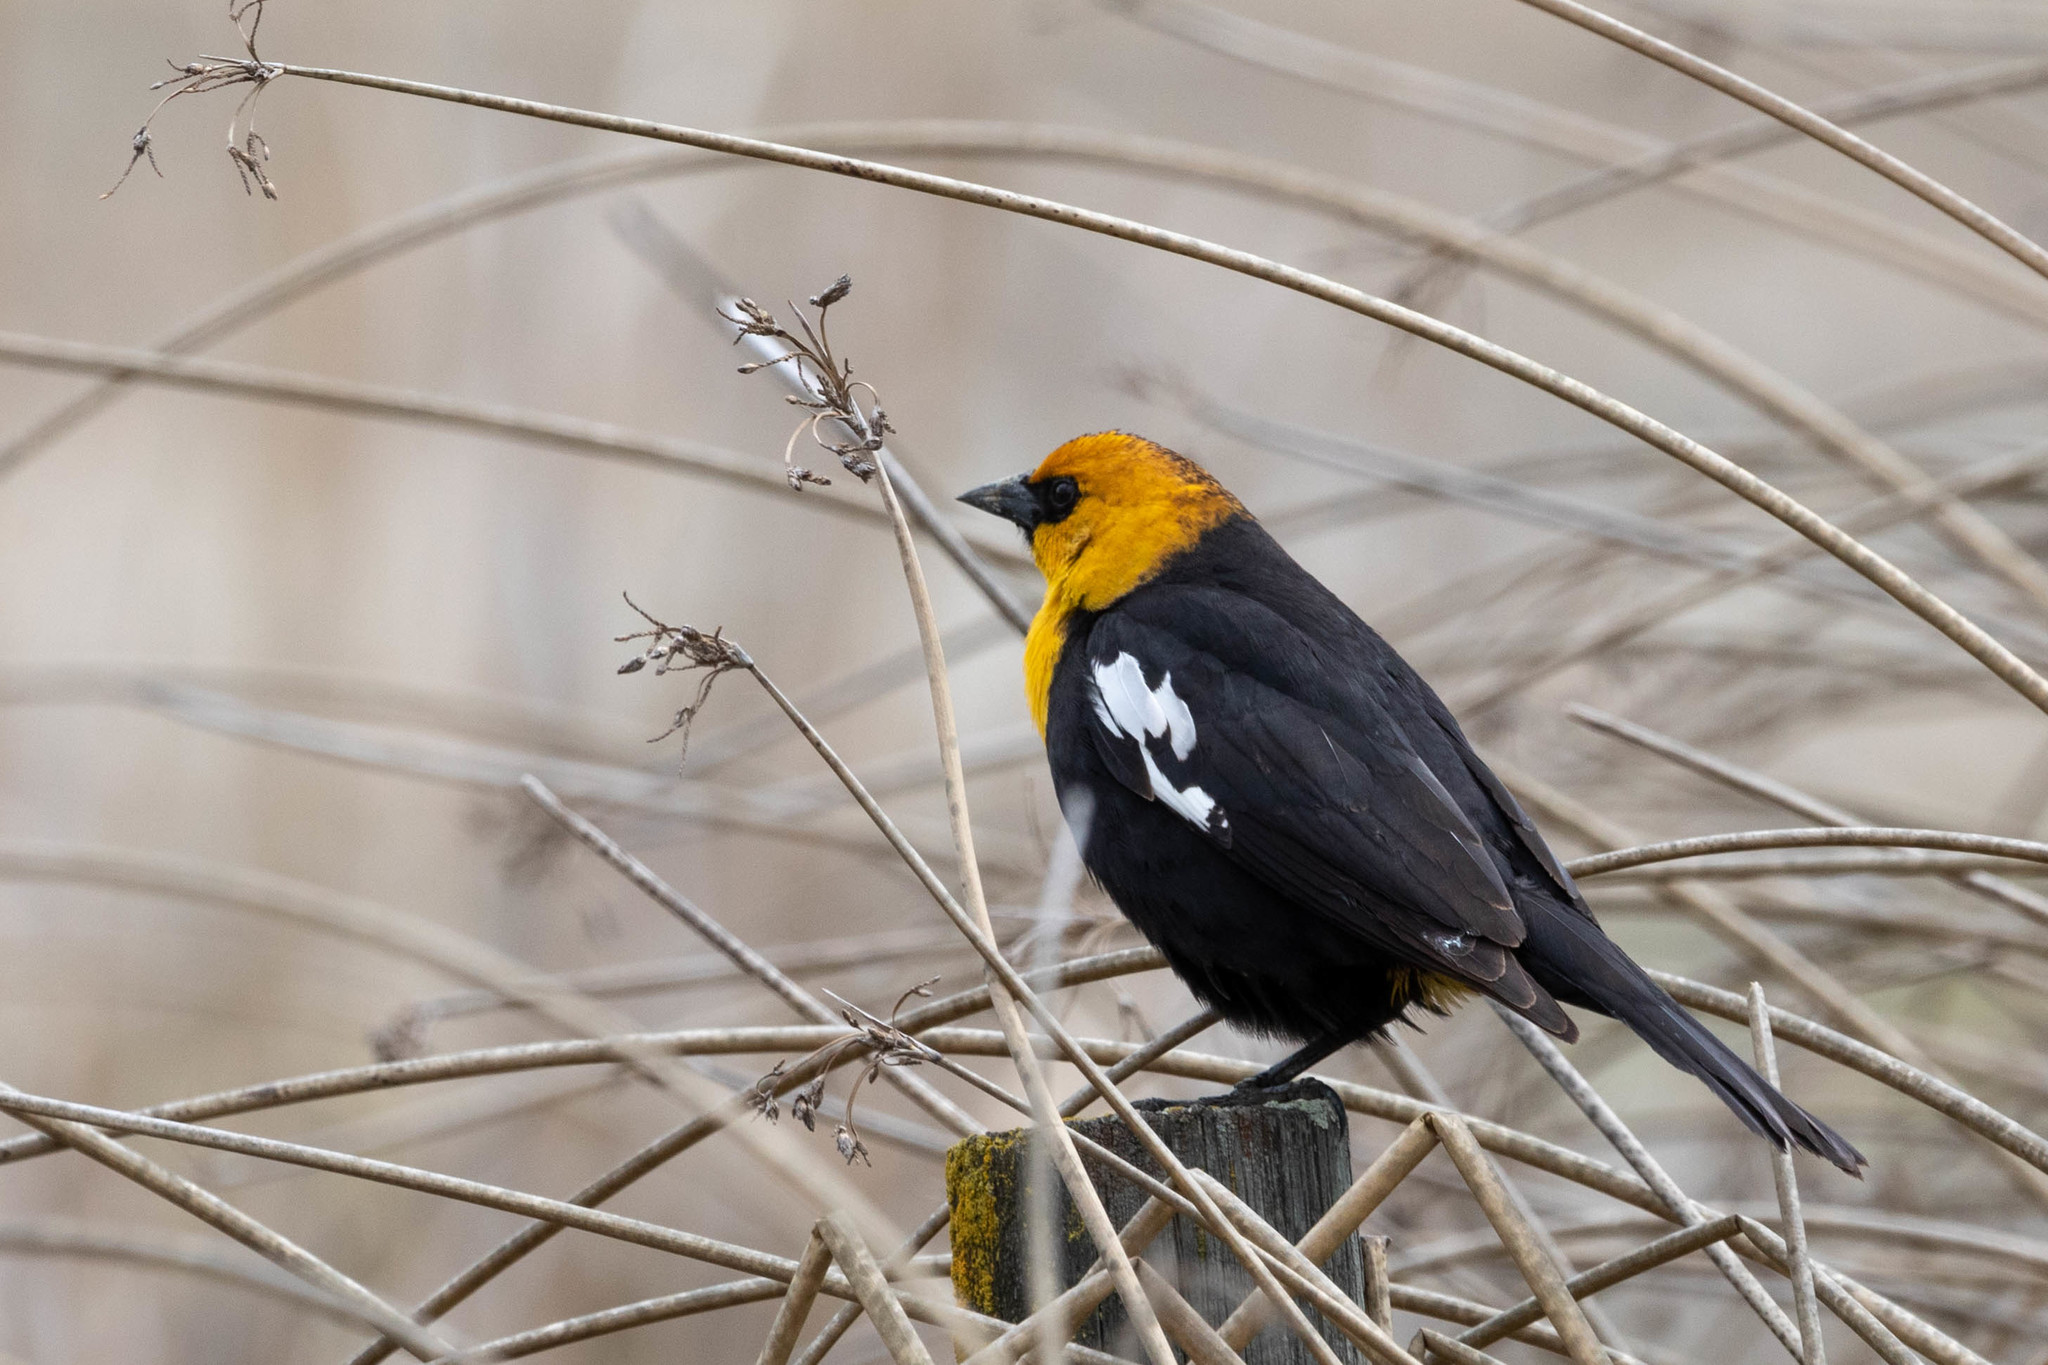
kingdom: Animalia
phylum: Chordata
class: Aves
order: Passeriformes
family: Icteridae
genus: Xanthocephalus
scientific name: Xanthocephalus xanthocephalus
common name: Yellow-headed blackbird
